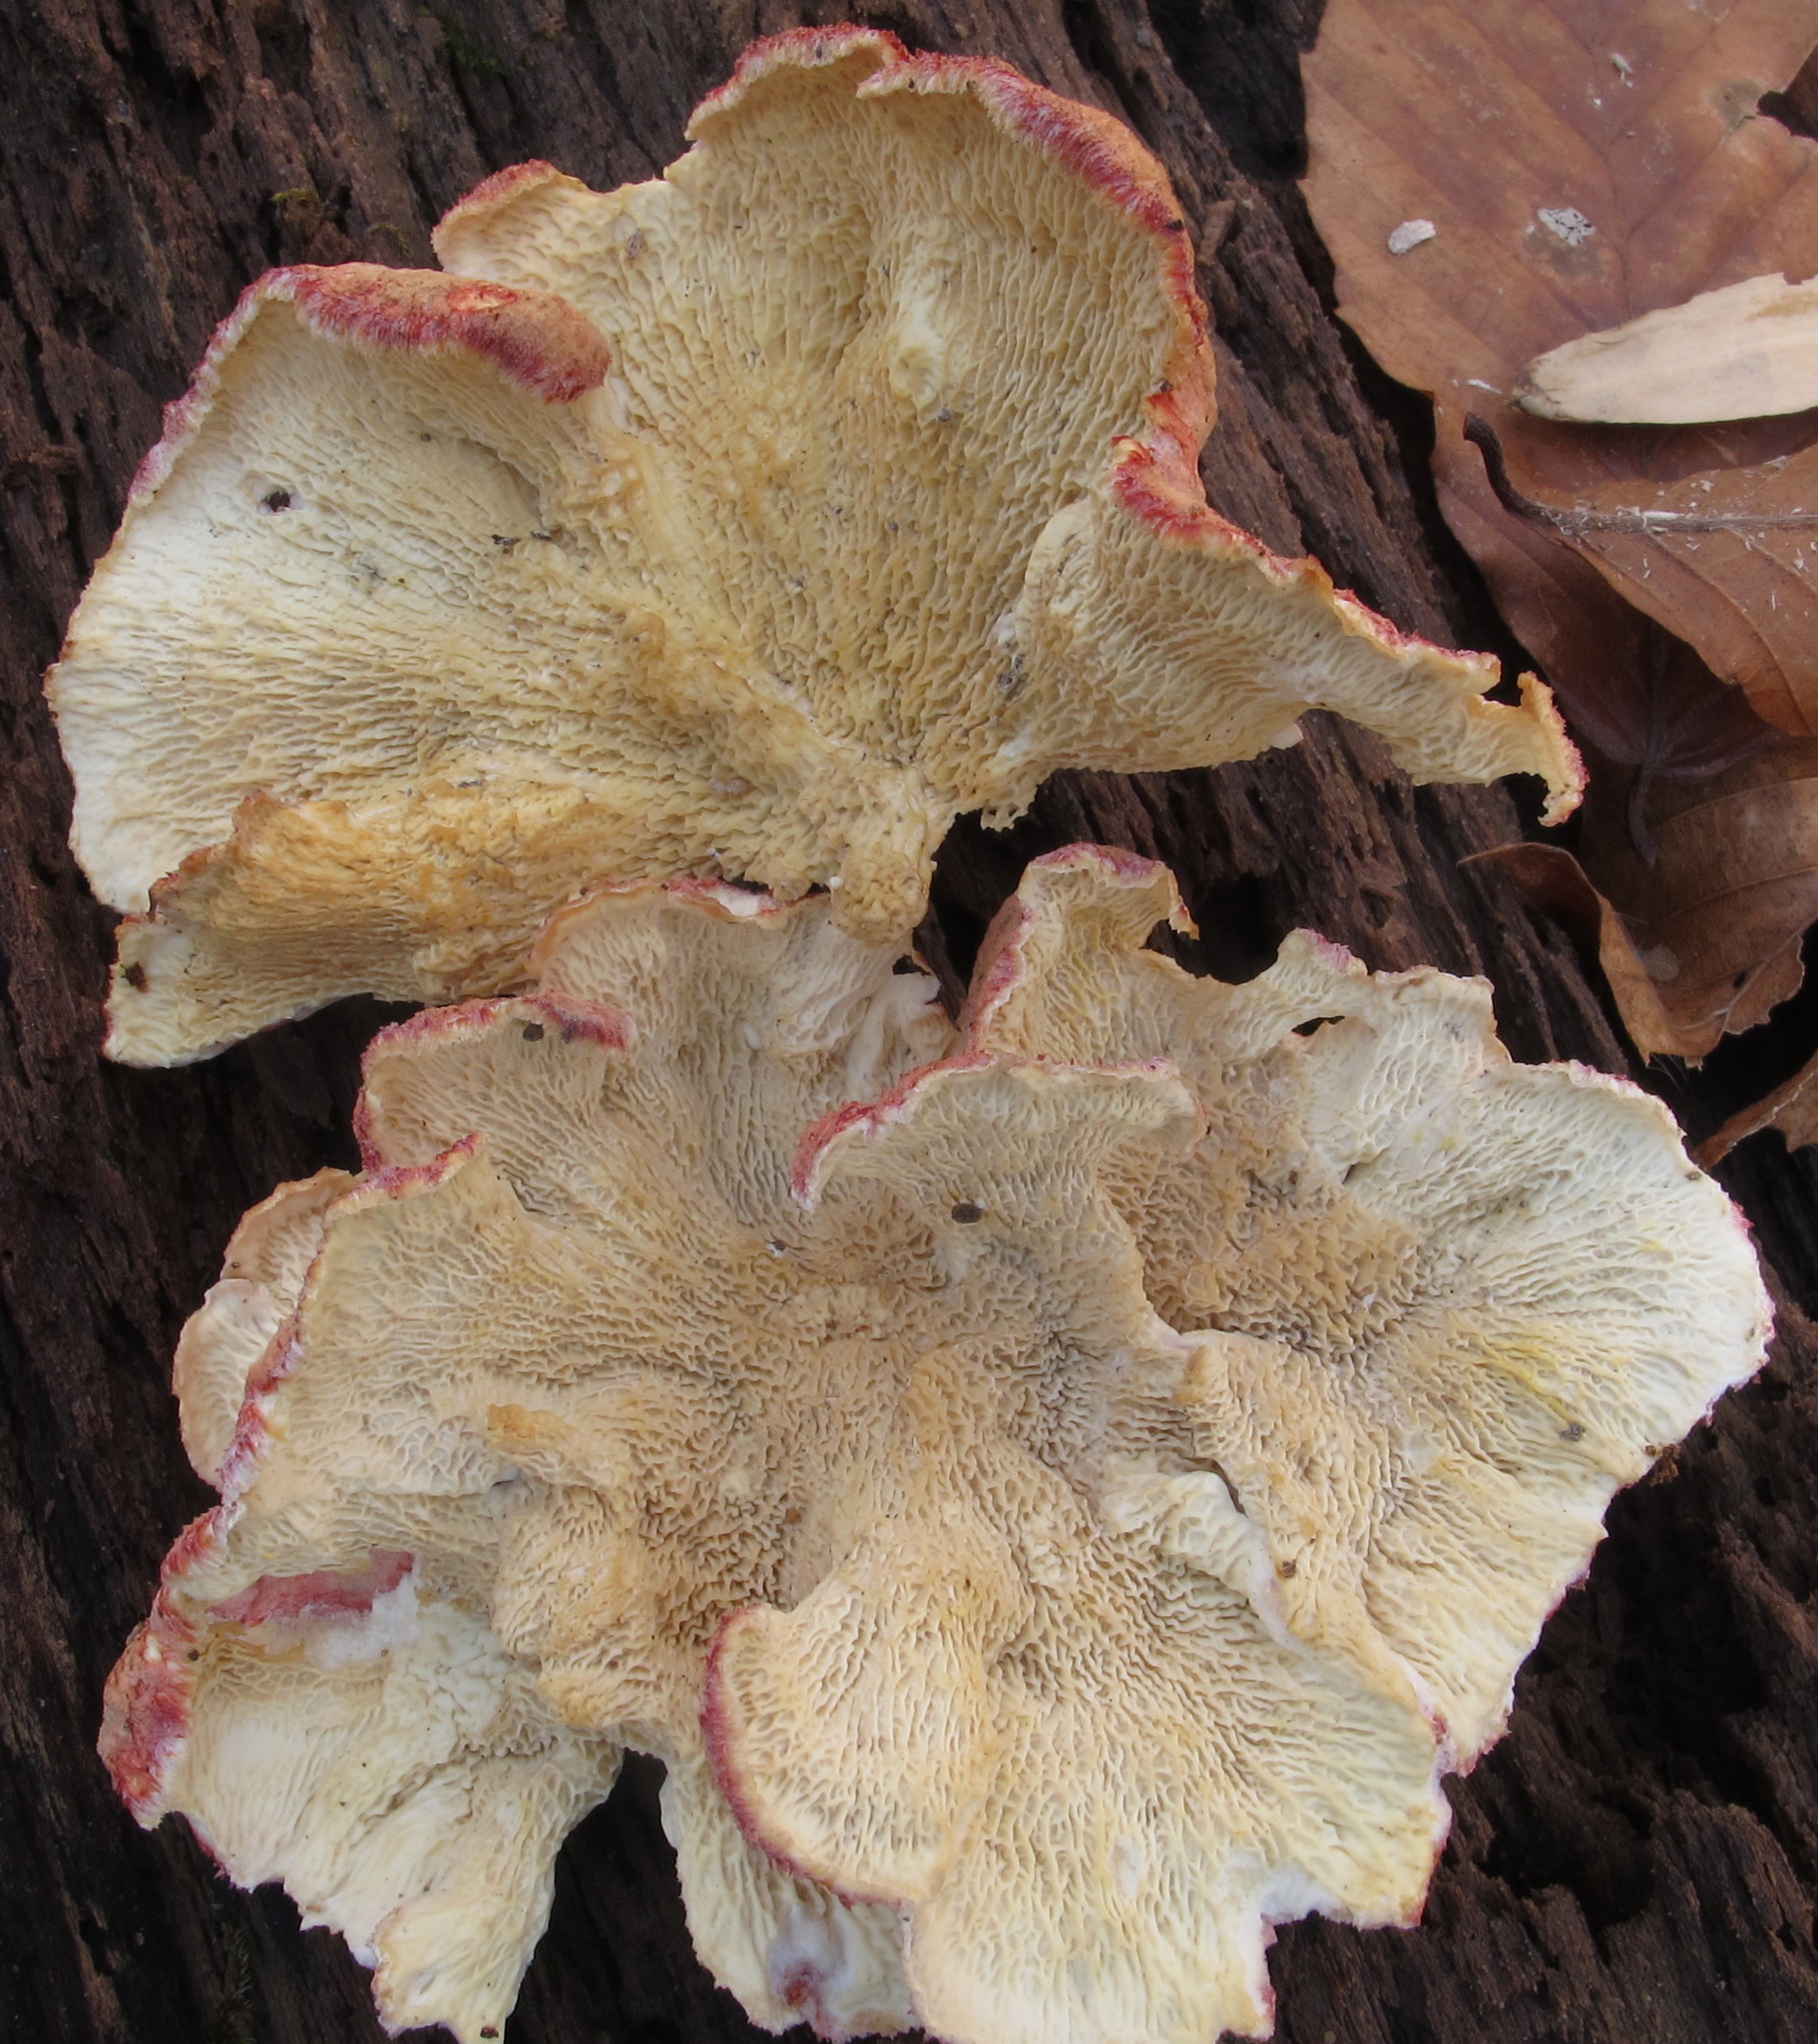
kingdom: Fungi
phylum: Basidiomycota
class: Agaricomycetes
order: Polyporales
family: Irpicaceae
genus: Byssomerulius
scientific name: Byssomerulius incarnatus
